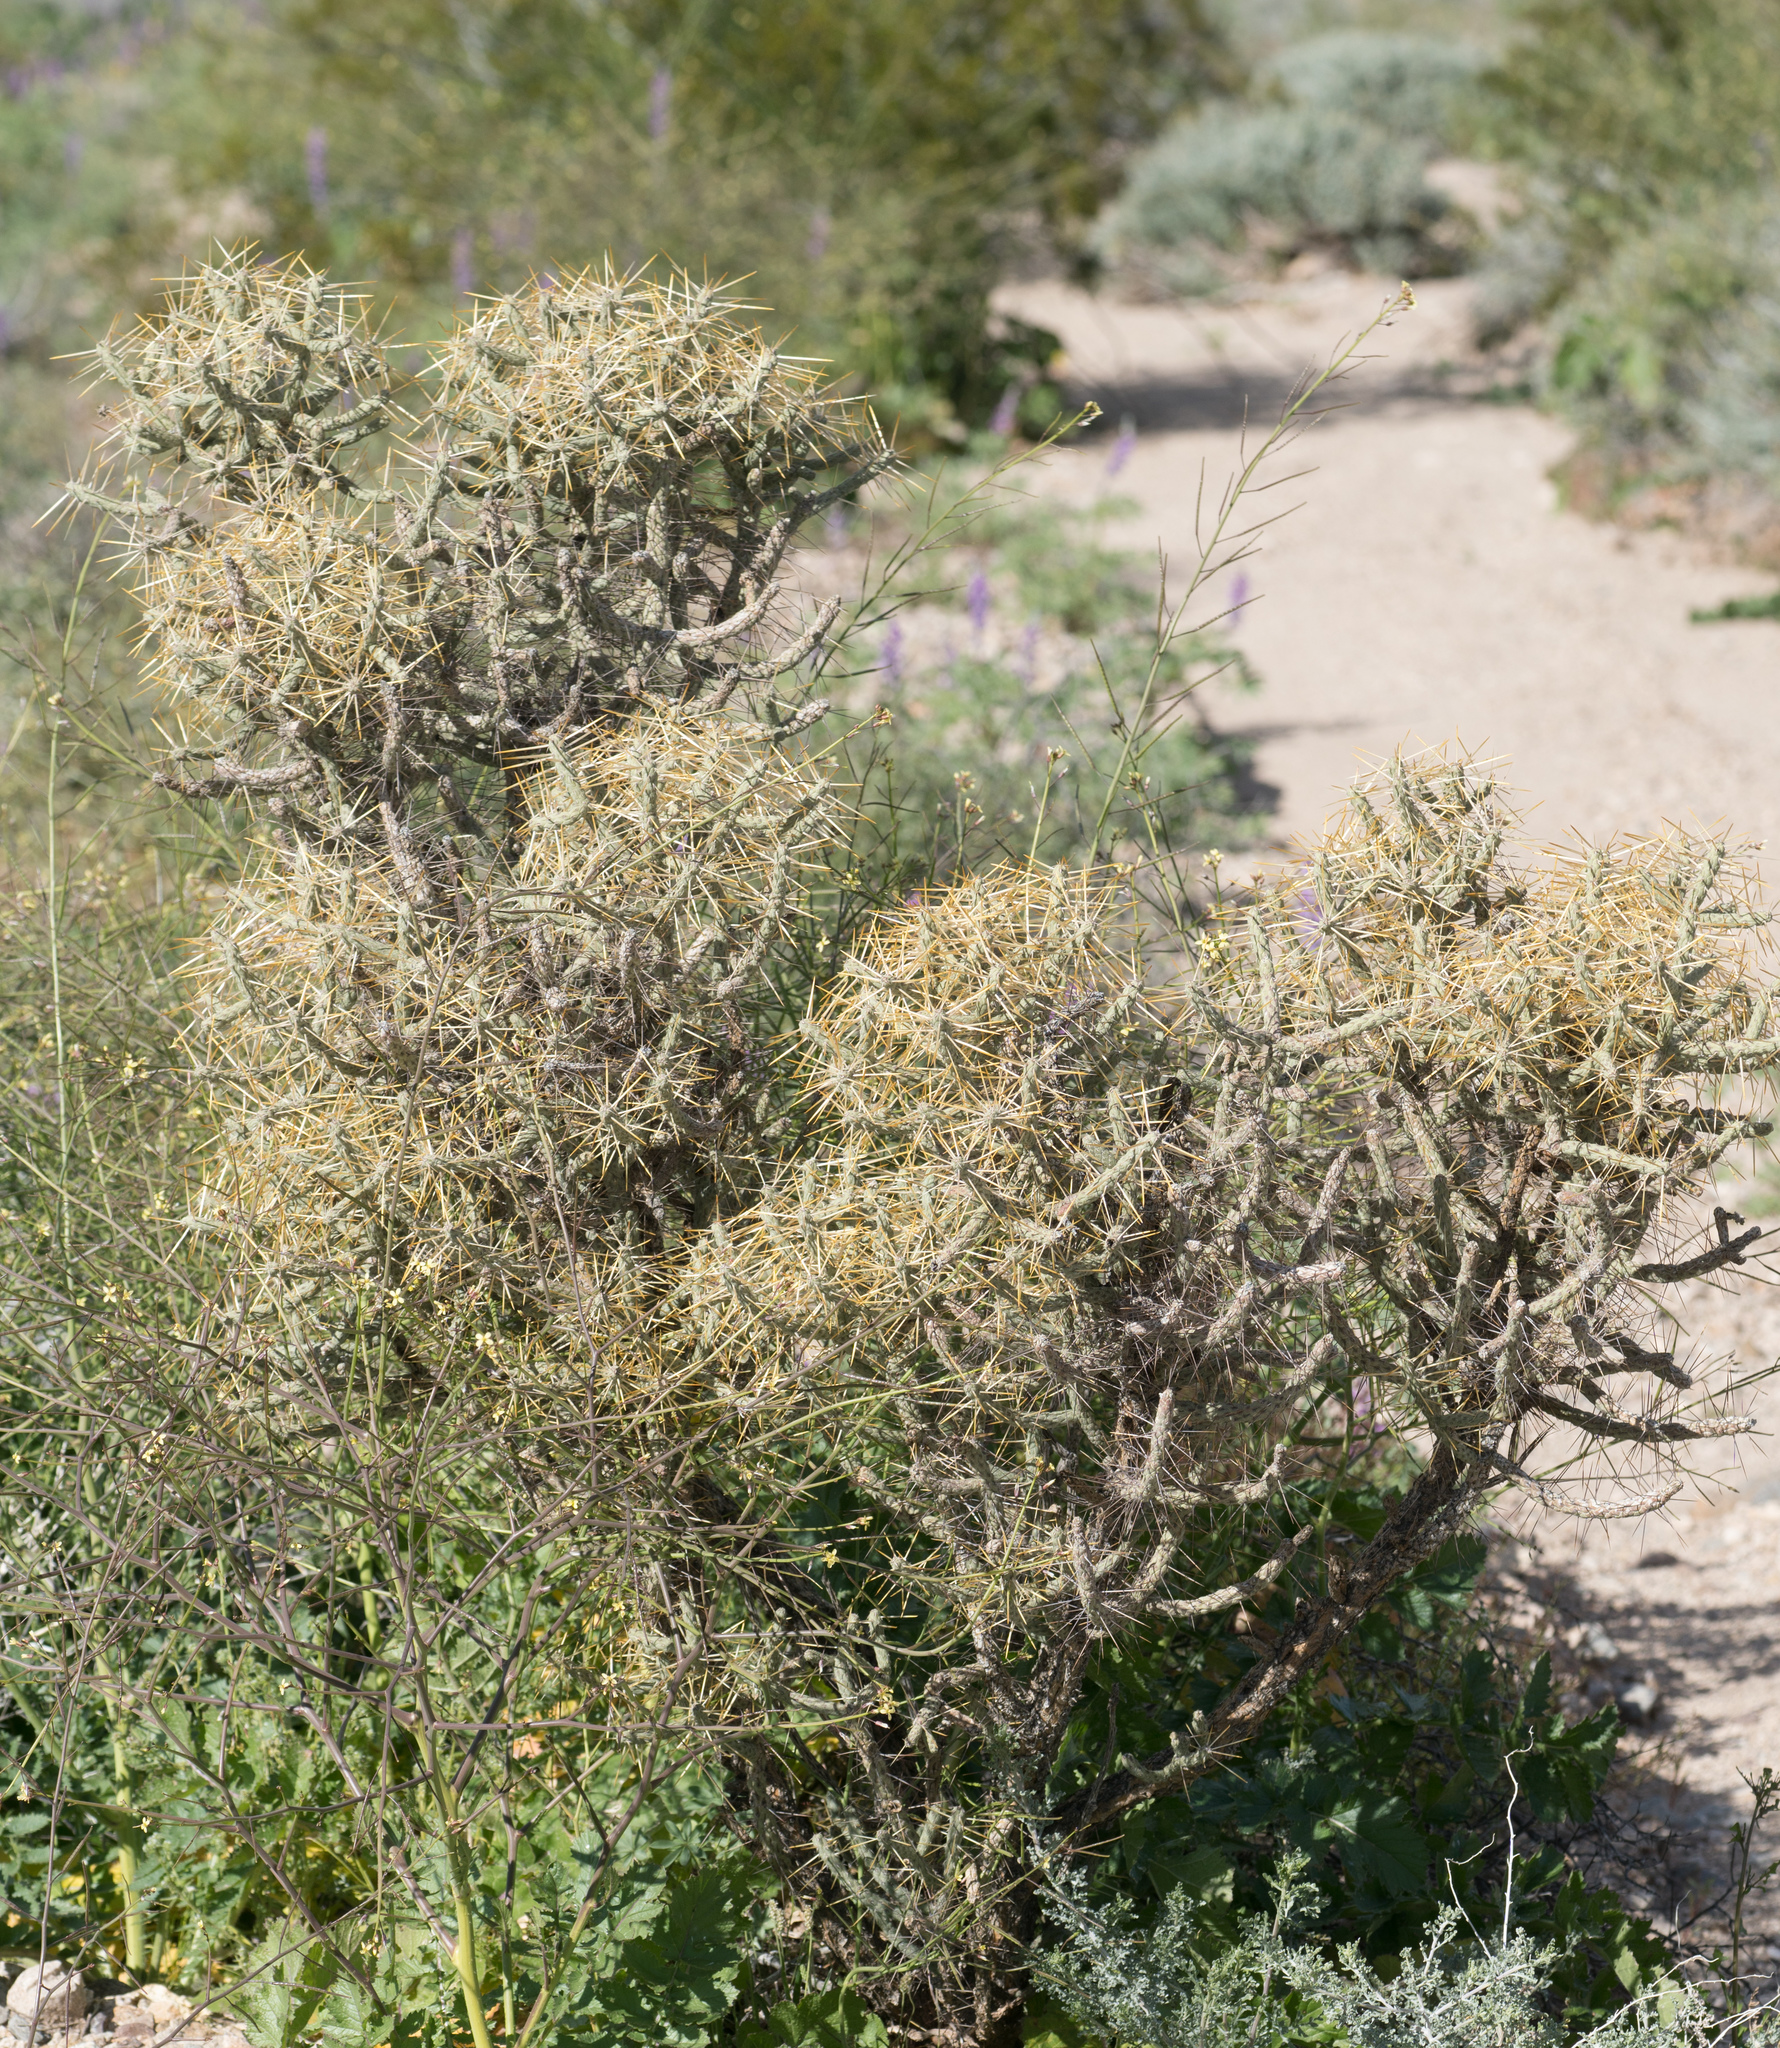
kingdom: Plantae
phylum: Tracheophyta
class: Magnoliopsida
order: Caryophyllales
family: Cactaceae
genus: Cylindropuntia
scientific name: Cylindropuntia ramosissima
